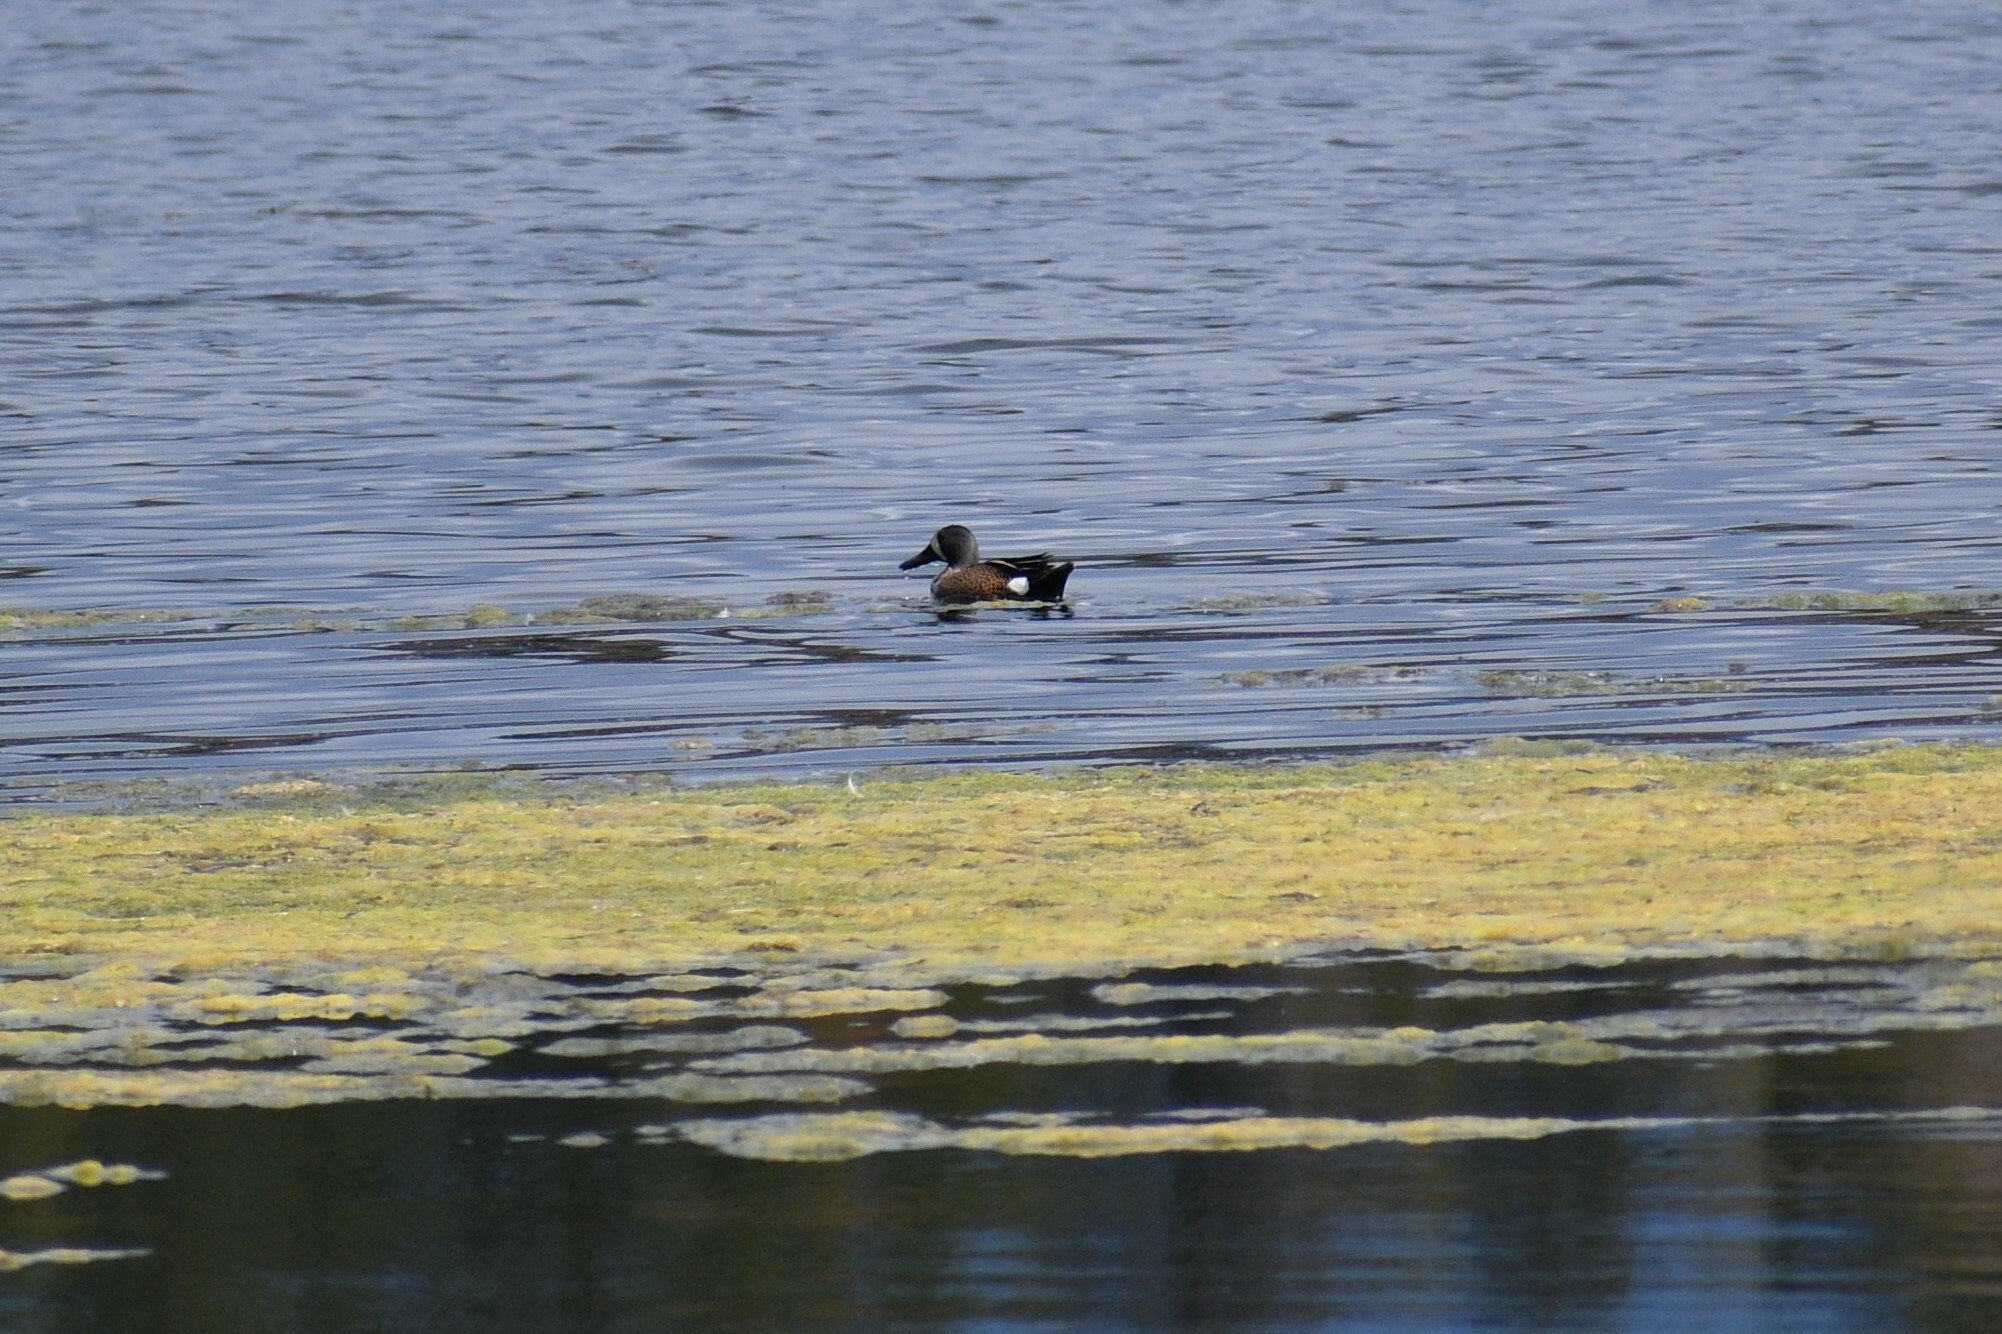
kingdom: Animalia
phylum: Chordata
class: Aves
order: Anseriformes
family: Anatidae
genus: Spatula
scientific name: Spatula discors
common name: Blue-winged teal
